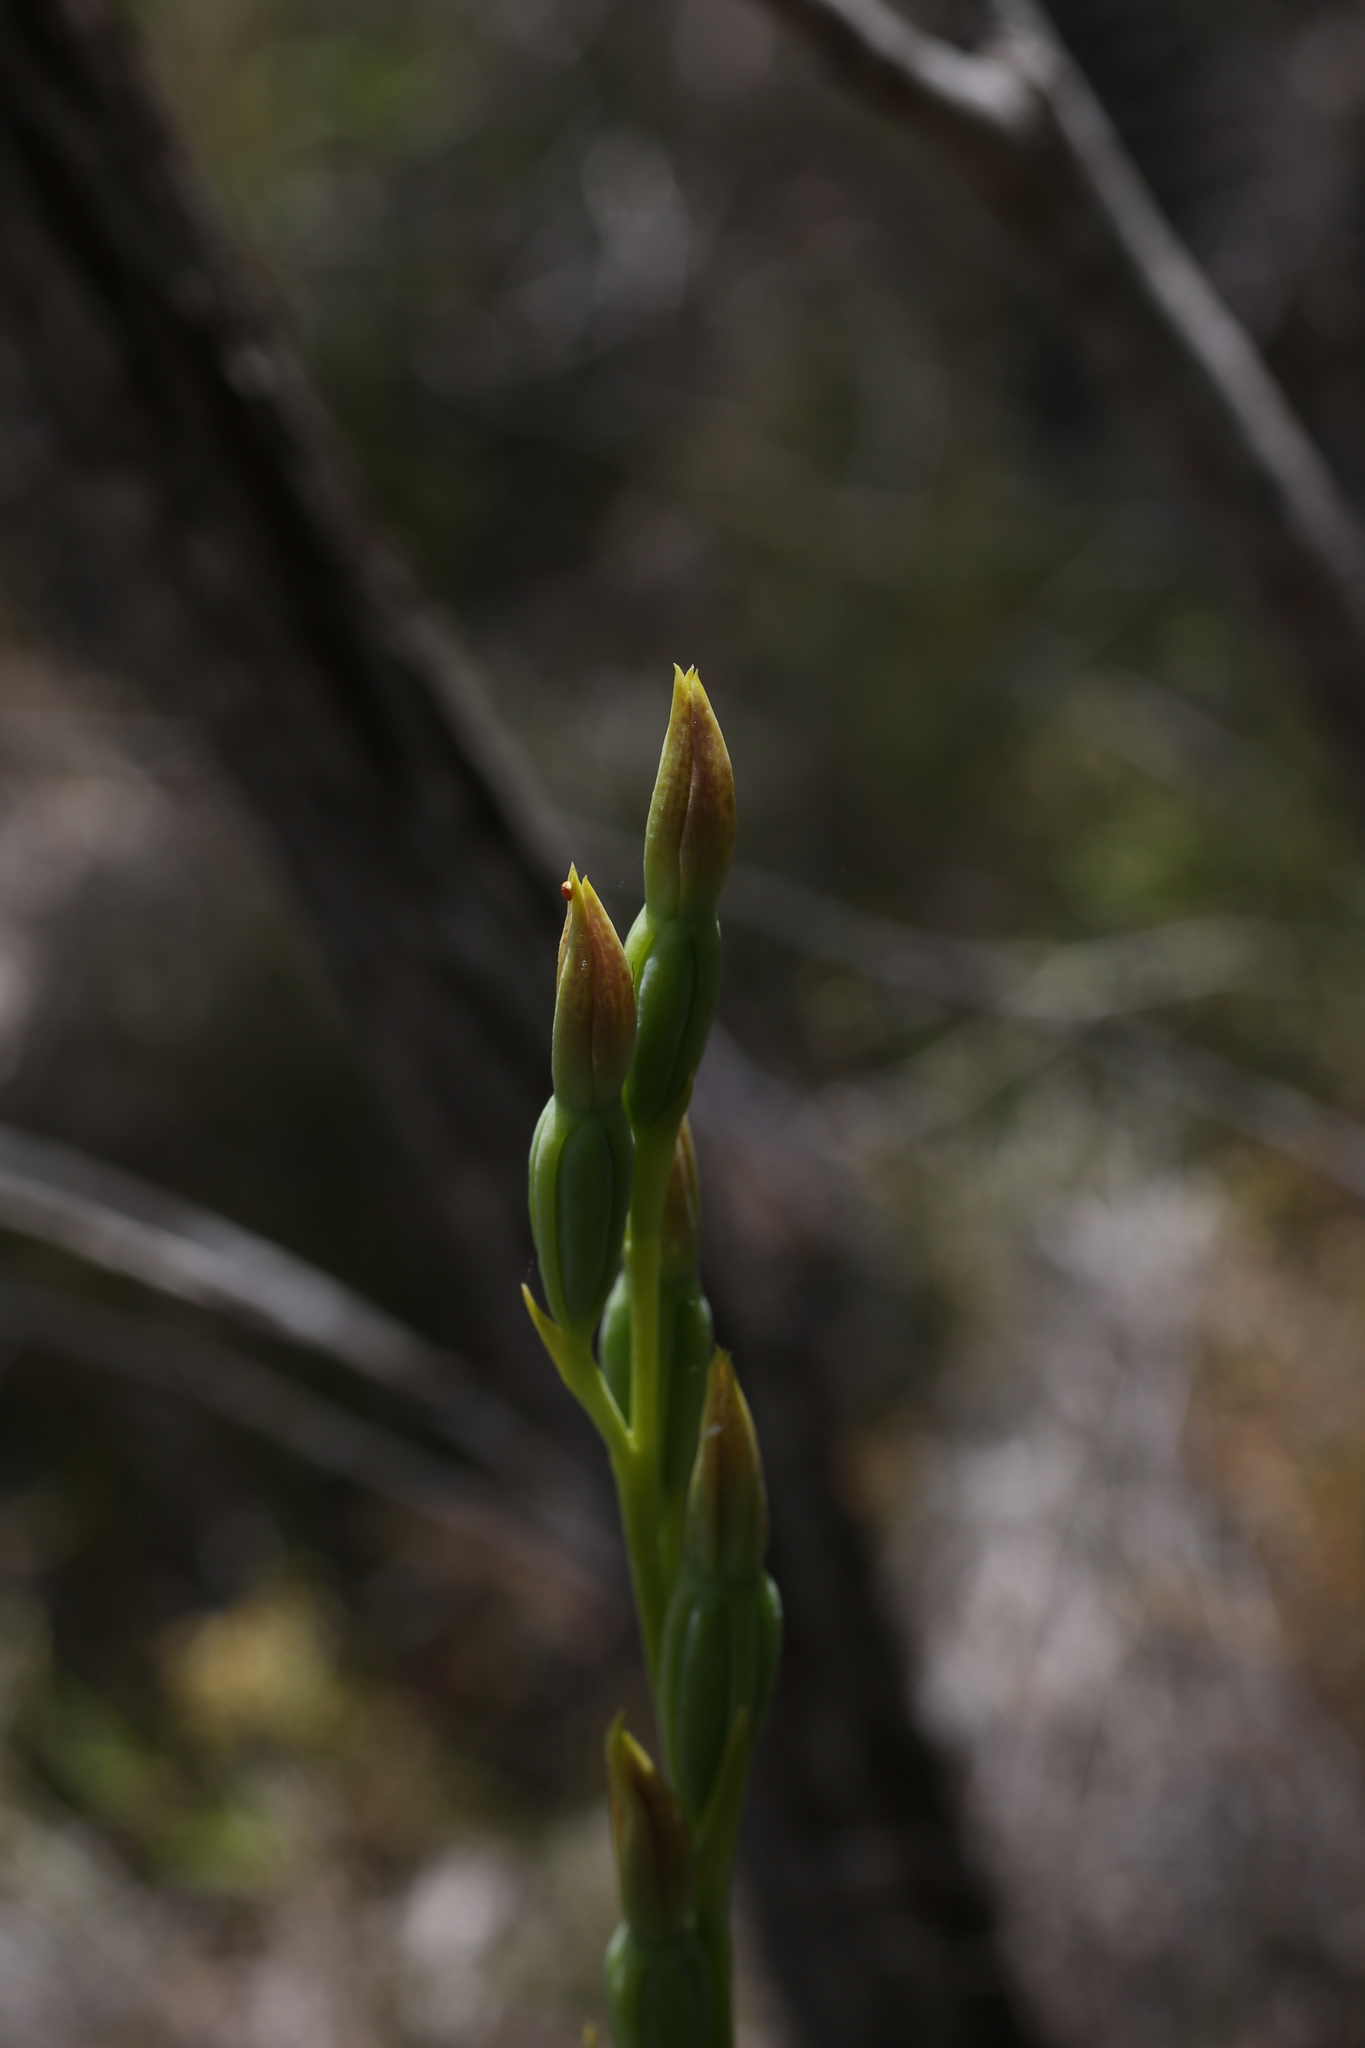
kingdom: Plantae
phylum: Tracheophyta
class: Liliopsida
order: Asparagales
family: Orchidaceae
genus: Thelymitra
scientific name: Thelymitra benthamiana
